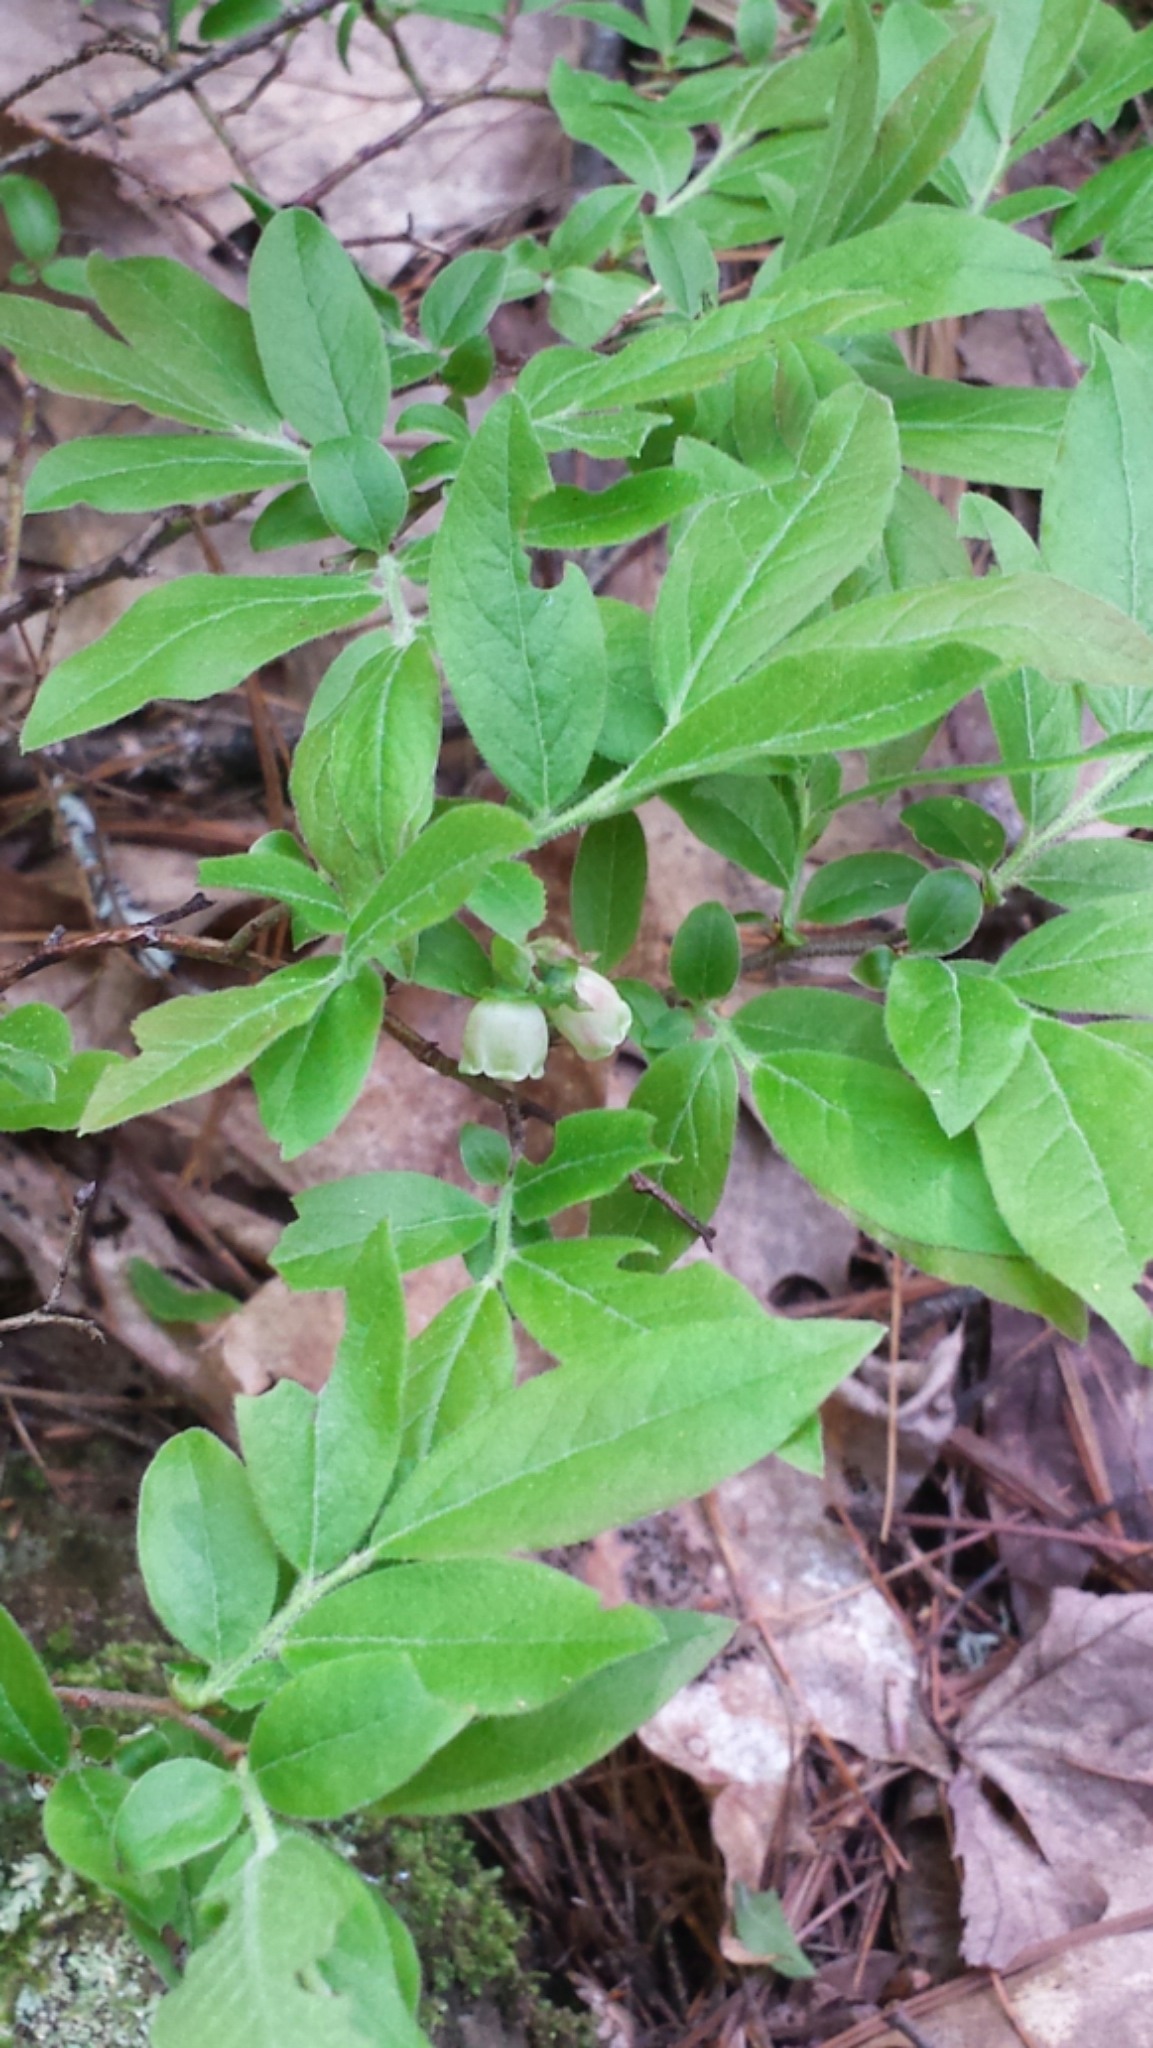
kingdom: Plantae
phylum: Tracheophyta
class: Magnoliopsida
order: Ericales
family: Ericaceae
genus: Vaccinium
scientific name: Vaccinium angustifolium
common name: Early lowbush blueberry
